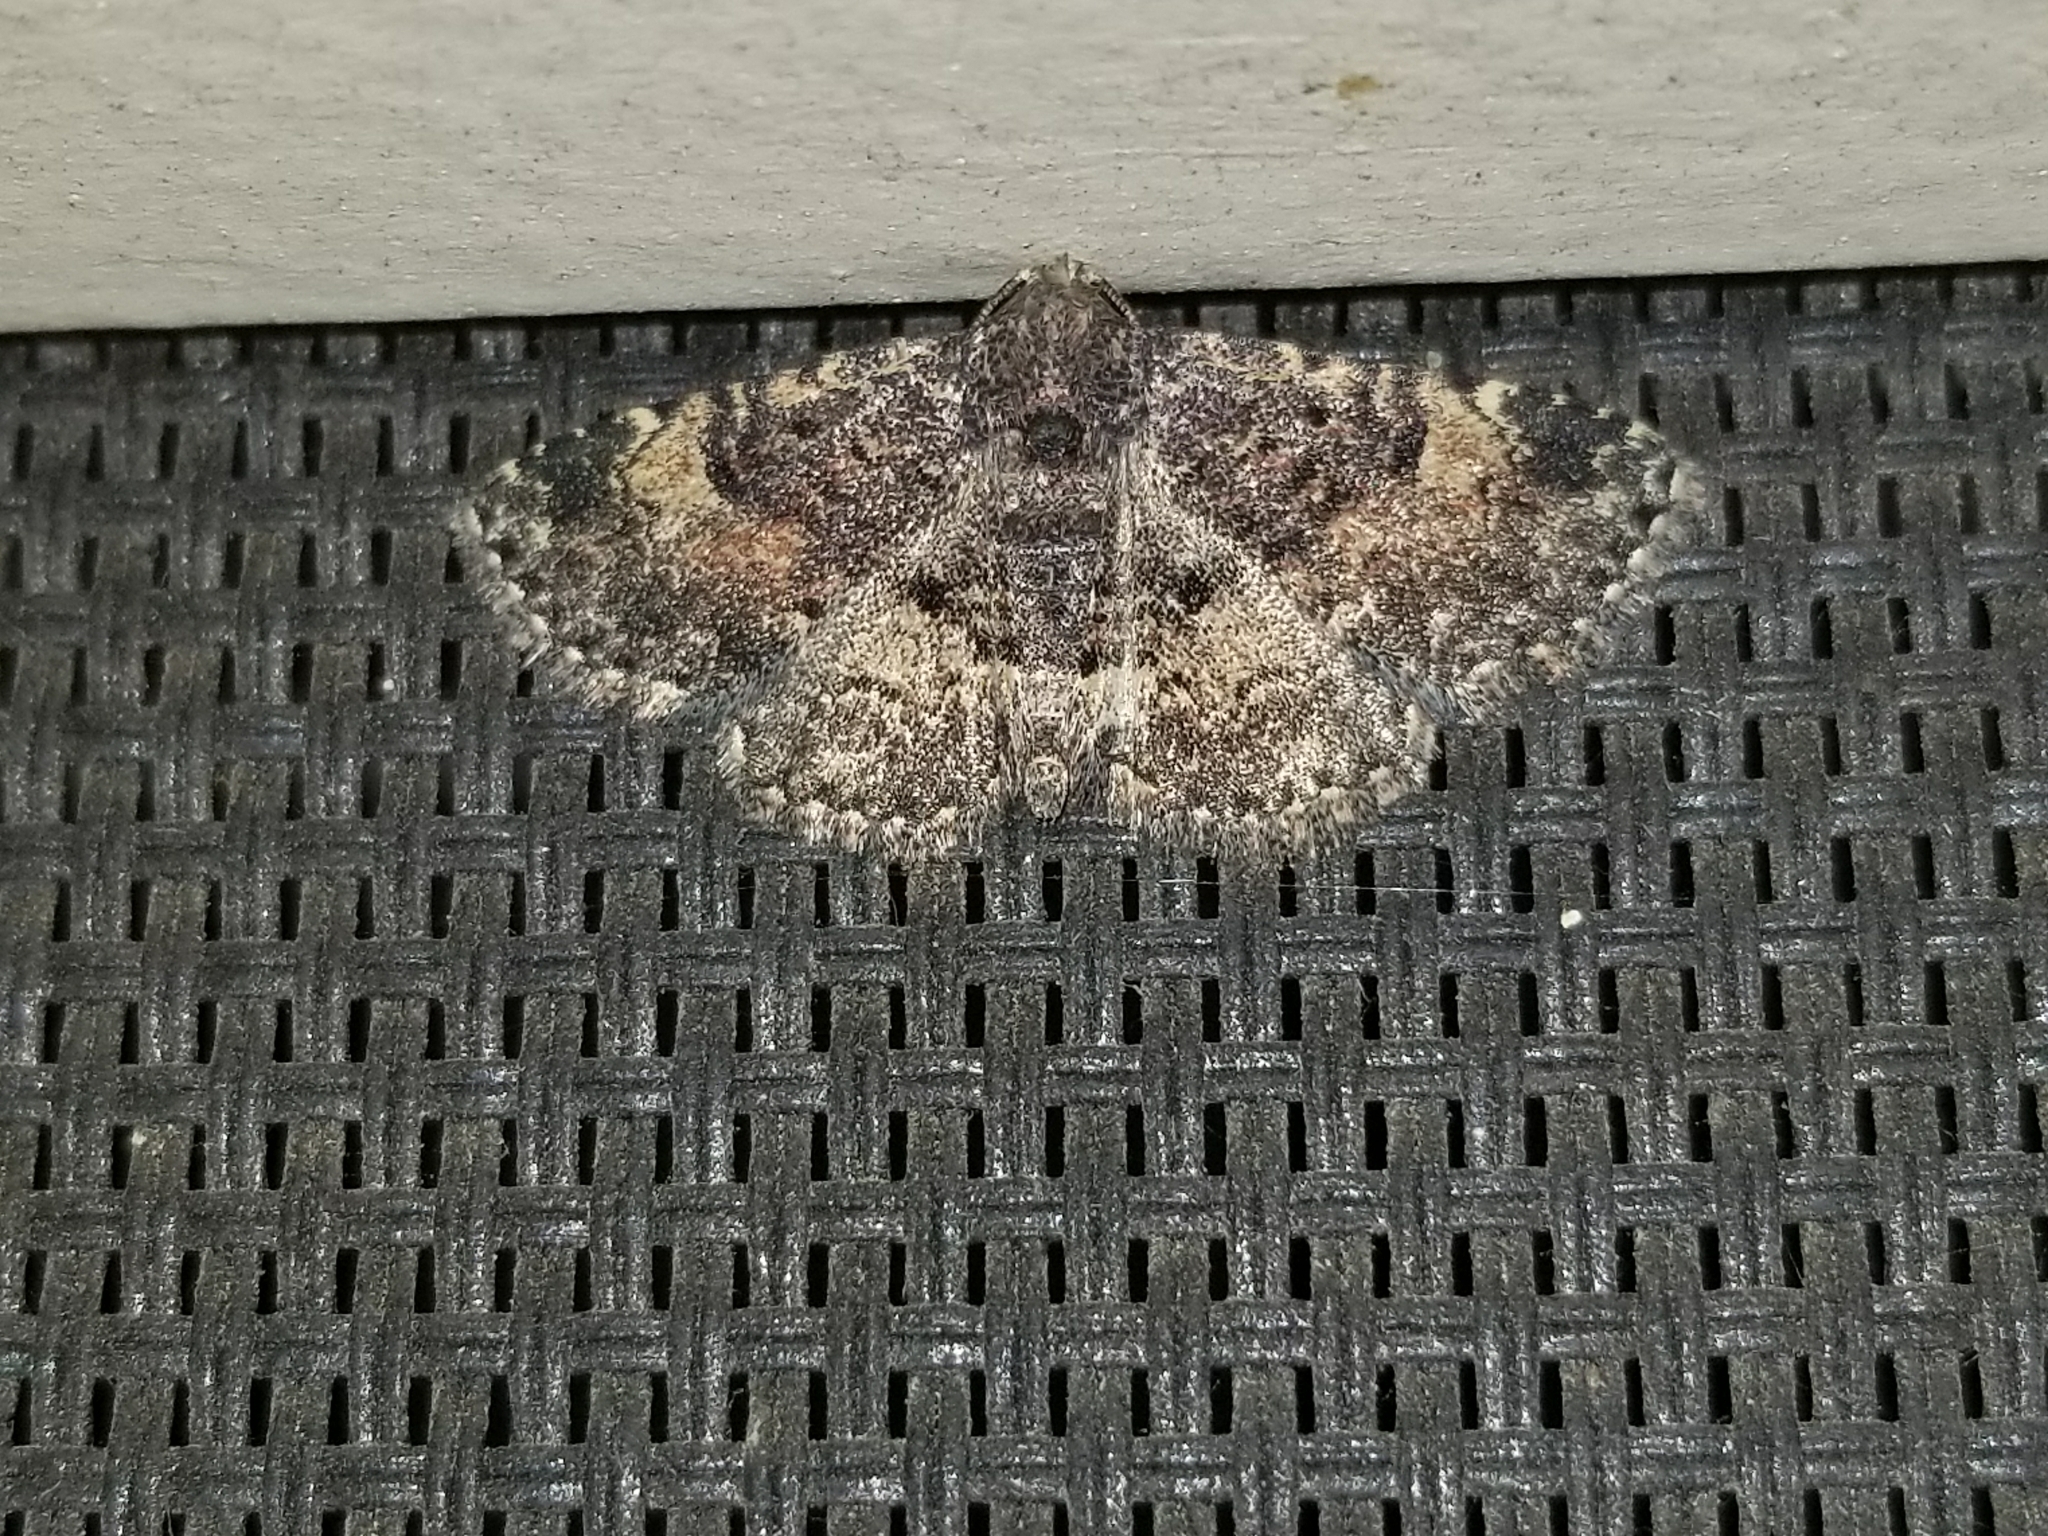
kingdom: Animalia
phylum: Arthropoda
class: Insecta
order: Lepidoptera
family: Erebidae
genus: Metalectra
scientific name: Metalectra discalis
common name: Common fungus moth
